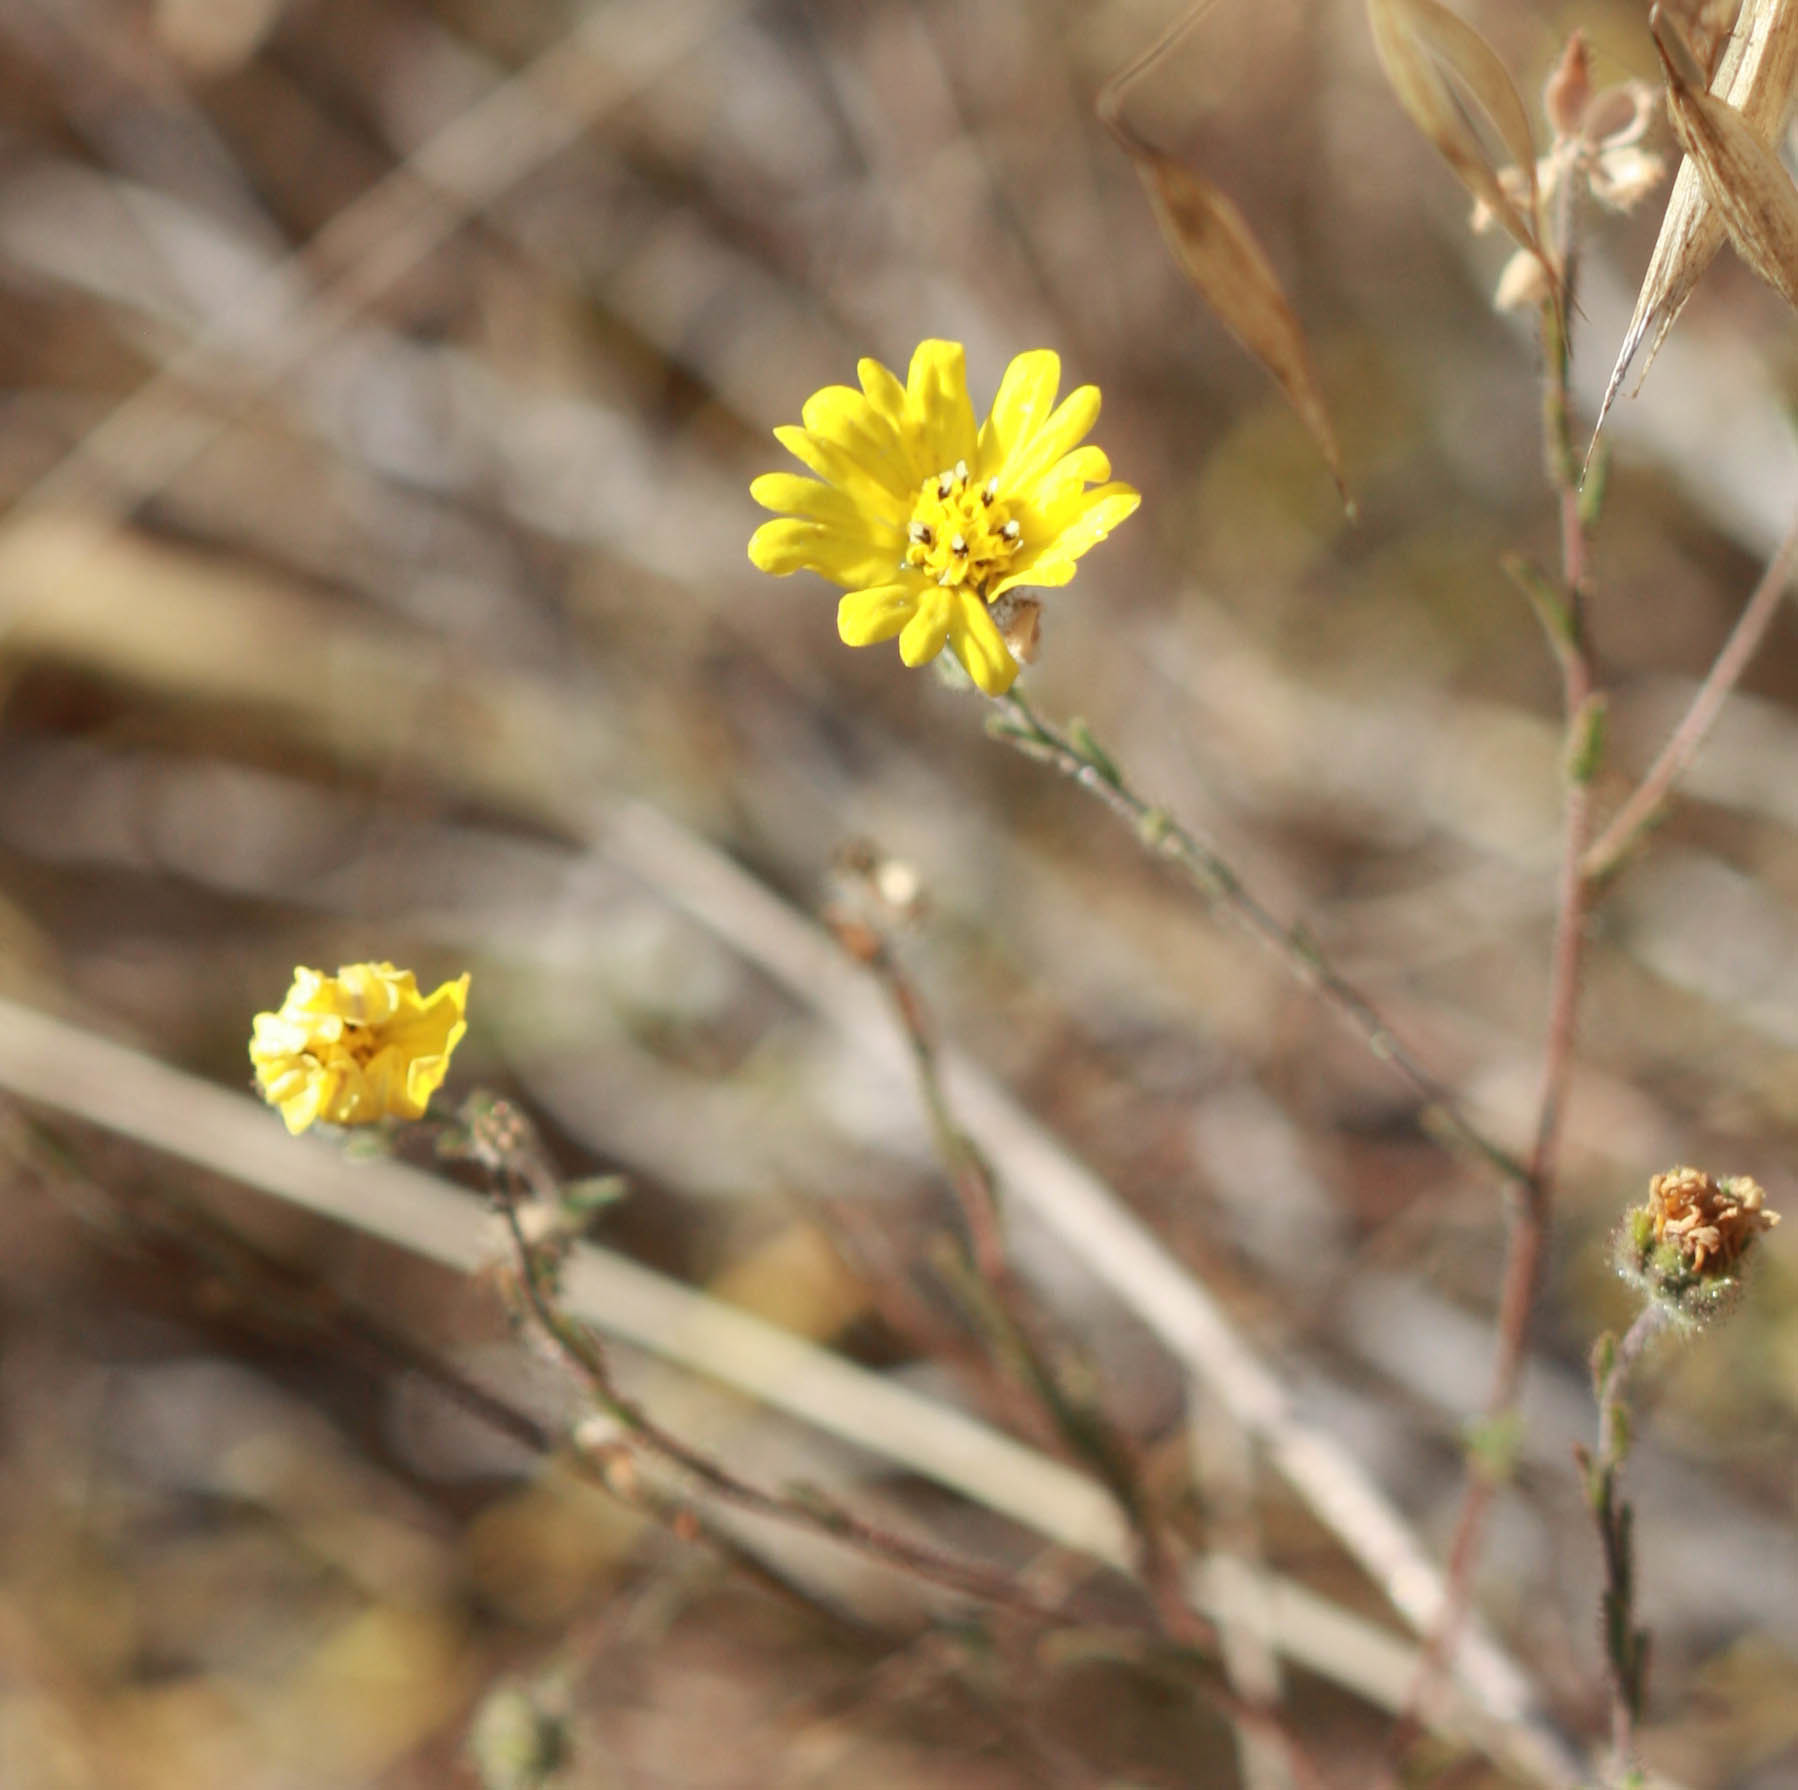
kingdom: Plantae
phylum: Tracheophyta
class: Magnoliopsida
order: Asterales
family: Asteraceae
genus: Hemizonia
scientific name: Hemizonia congesta
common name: Hayfield tarweed
